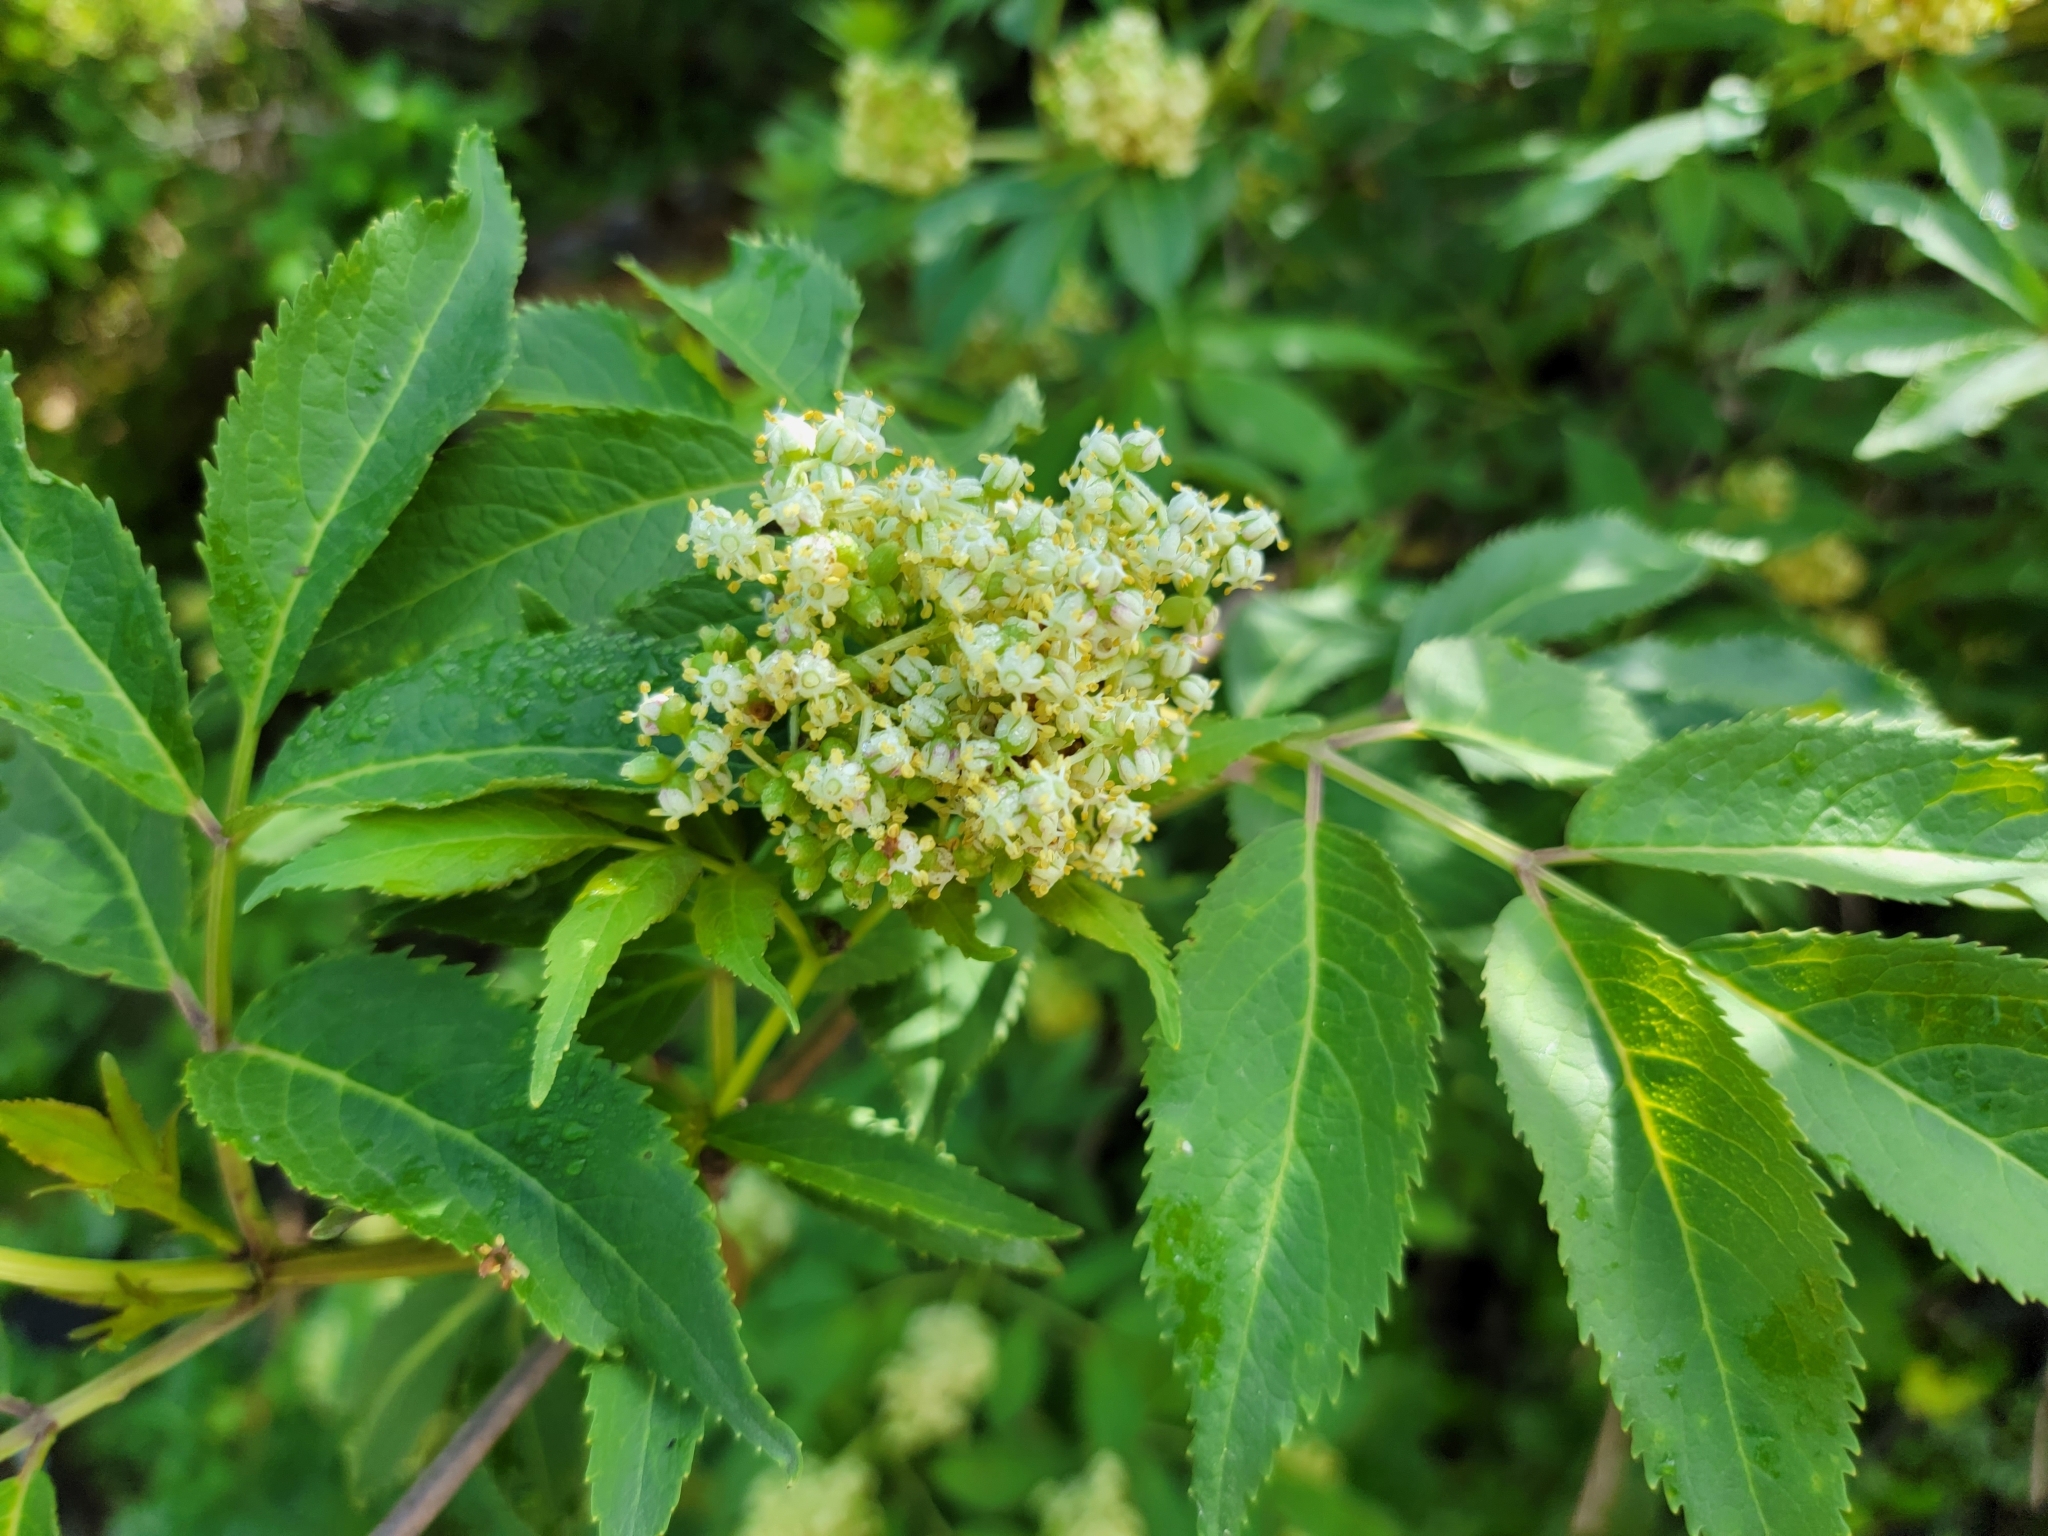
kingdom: Plantae
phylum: Tracheophyta
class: Magnoliopsida
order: Dipsacales
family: Viburnaceae
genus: Sambucus
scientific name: Sambucus racemosa
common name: Red-berried elder
